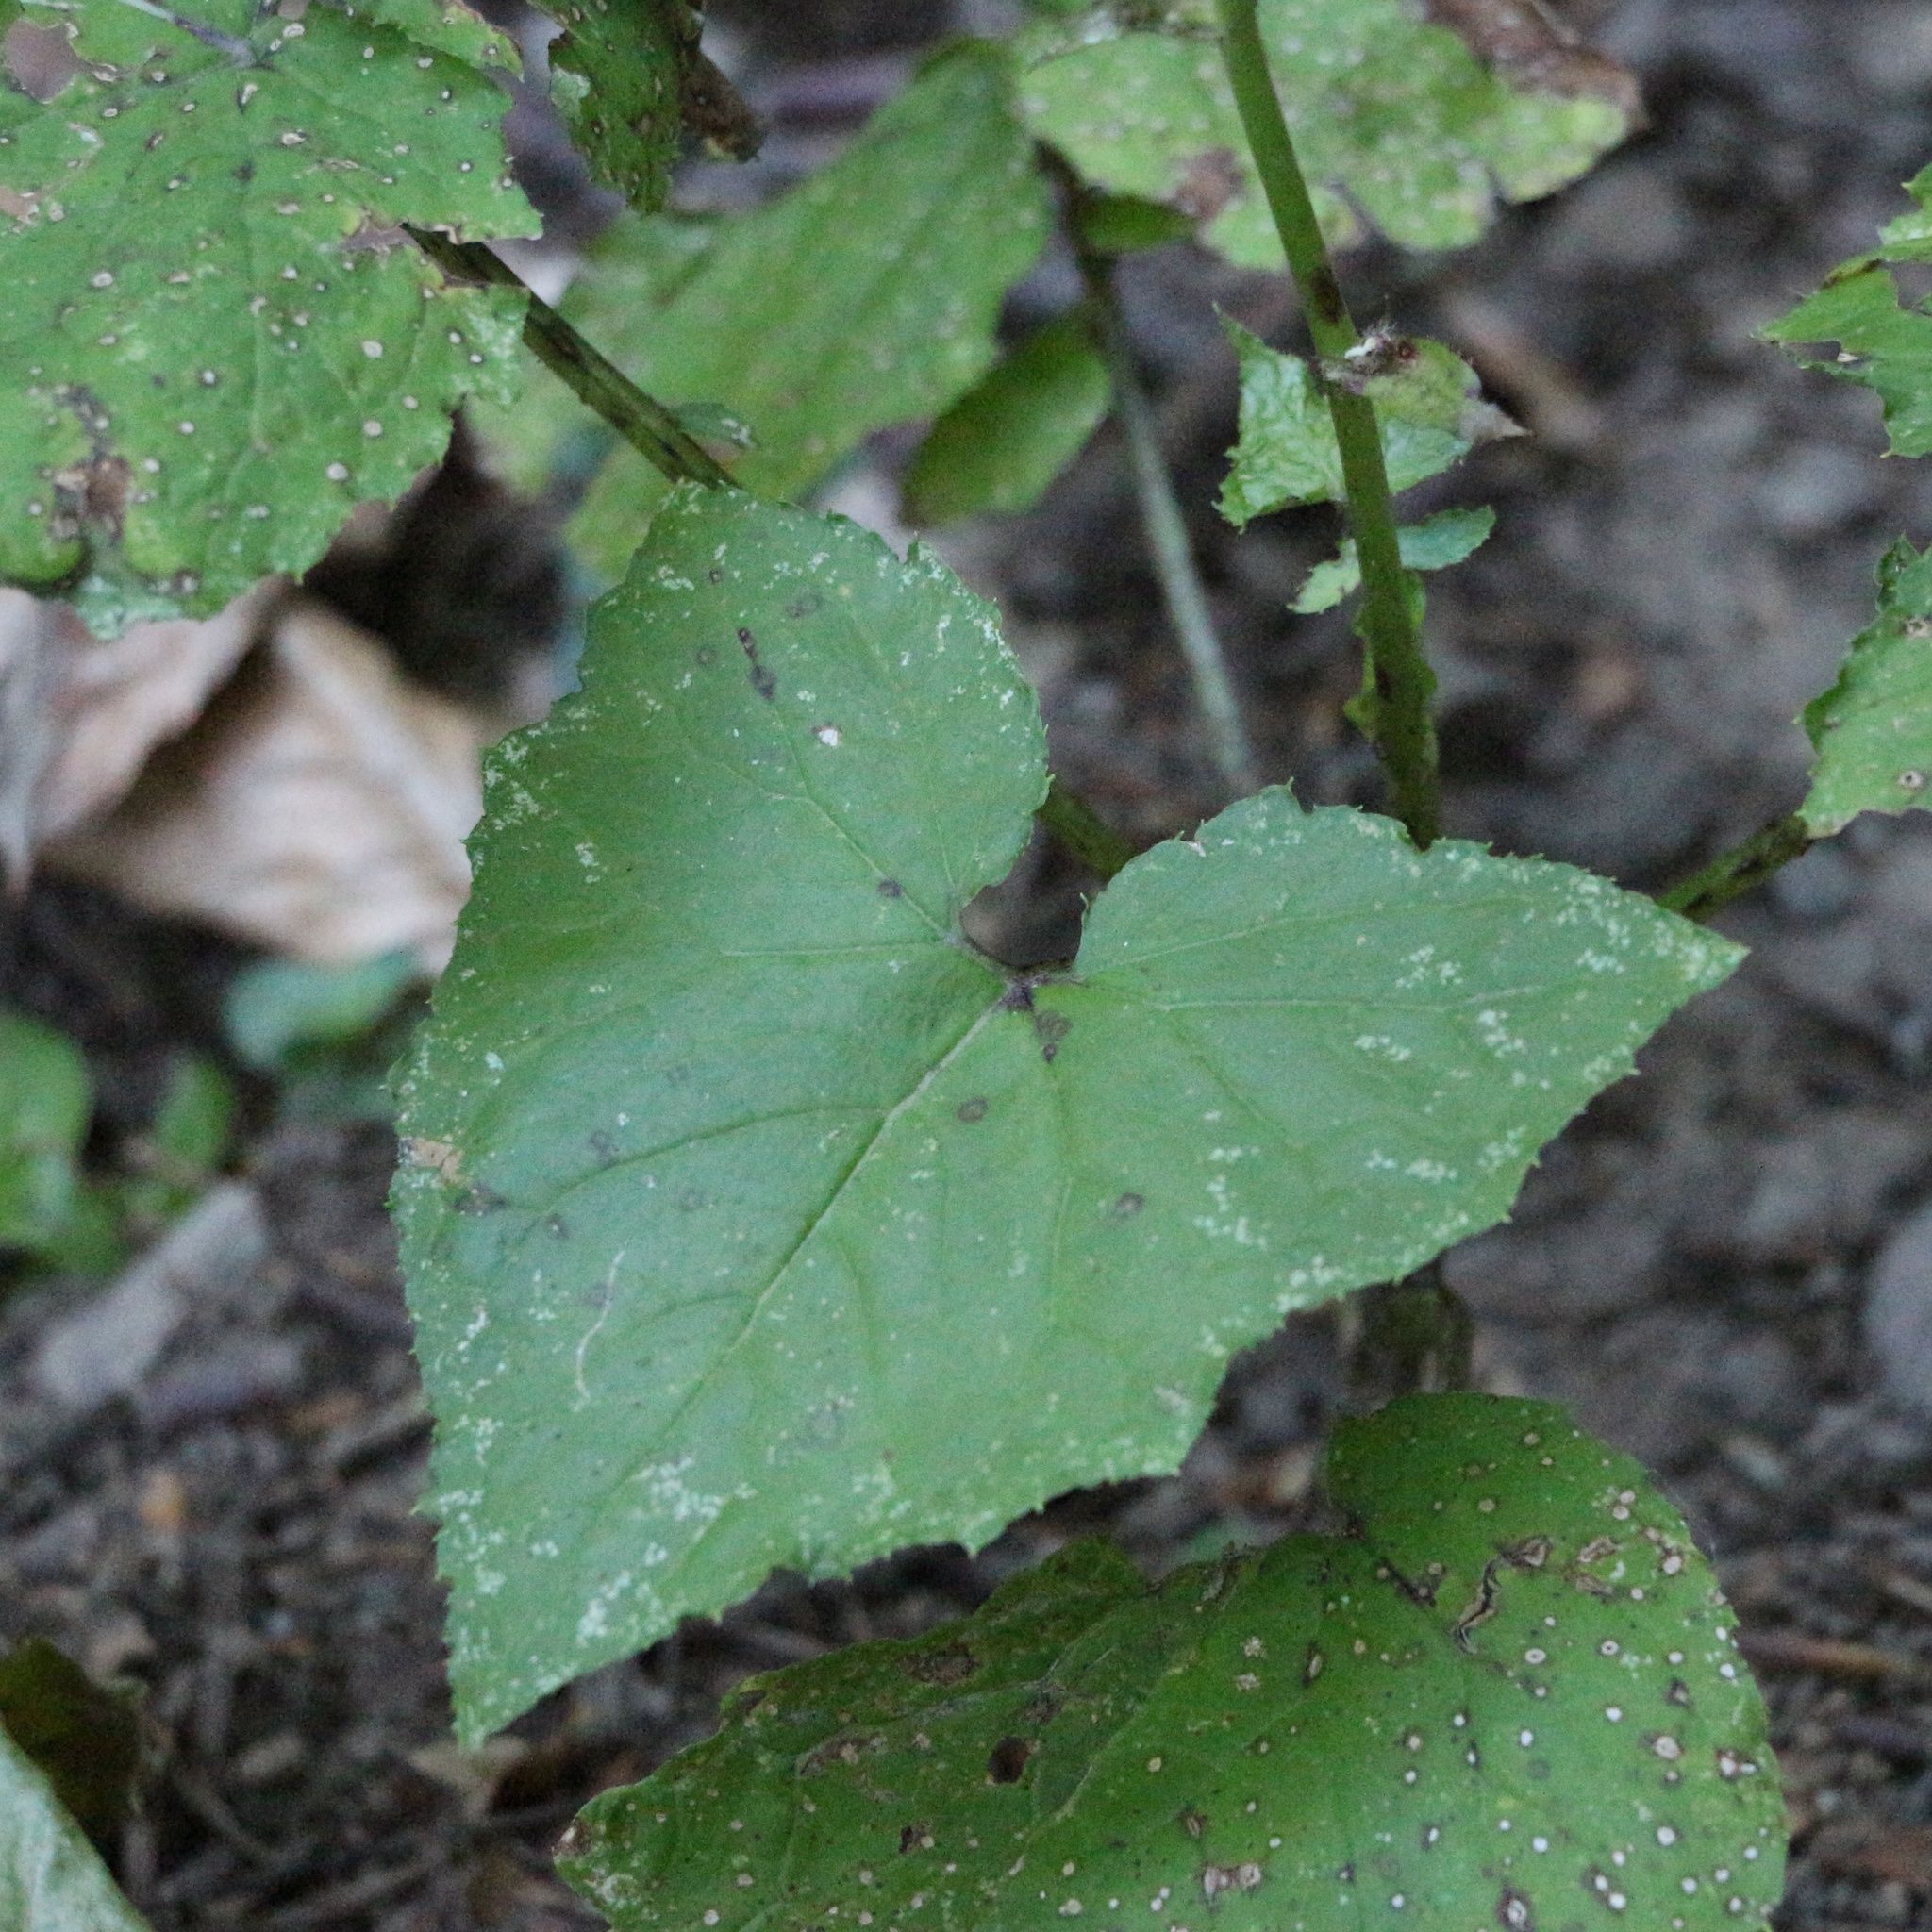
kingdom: Plantae
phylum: Tracheophyta
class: Magnoliopsida
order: Asterales
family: Asteraceae
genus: Cicerbita
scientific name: Cicerbita petiolata
